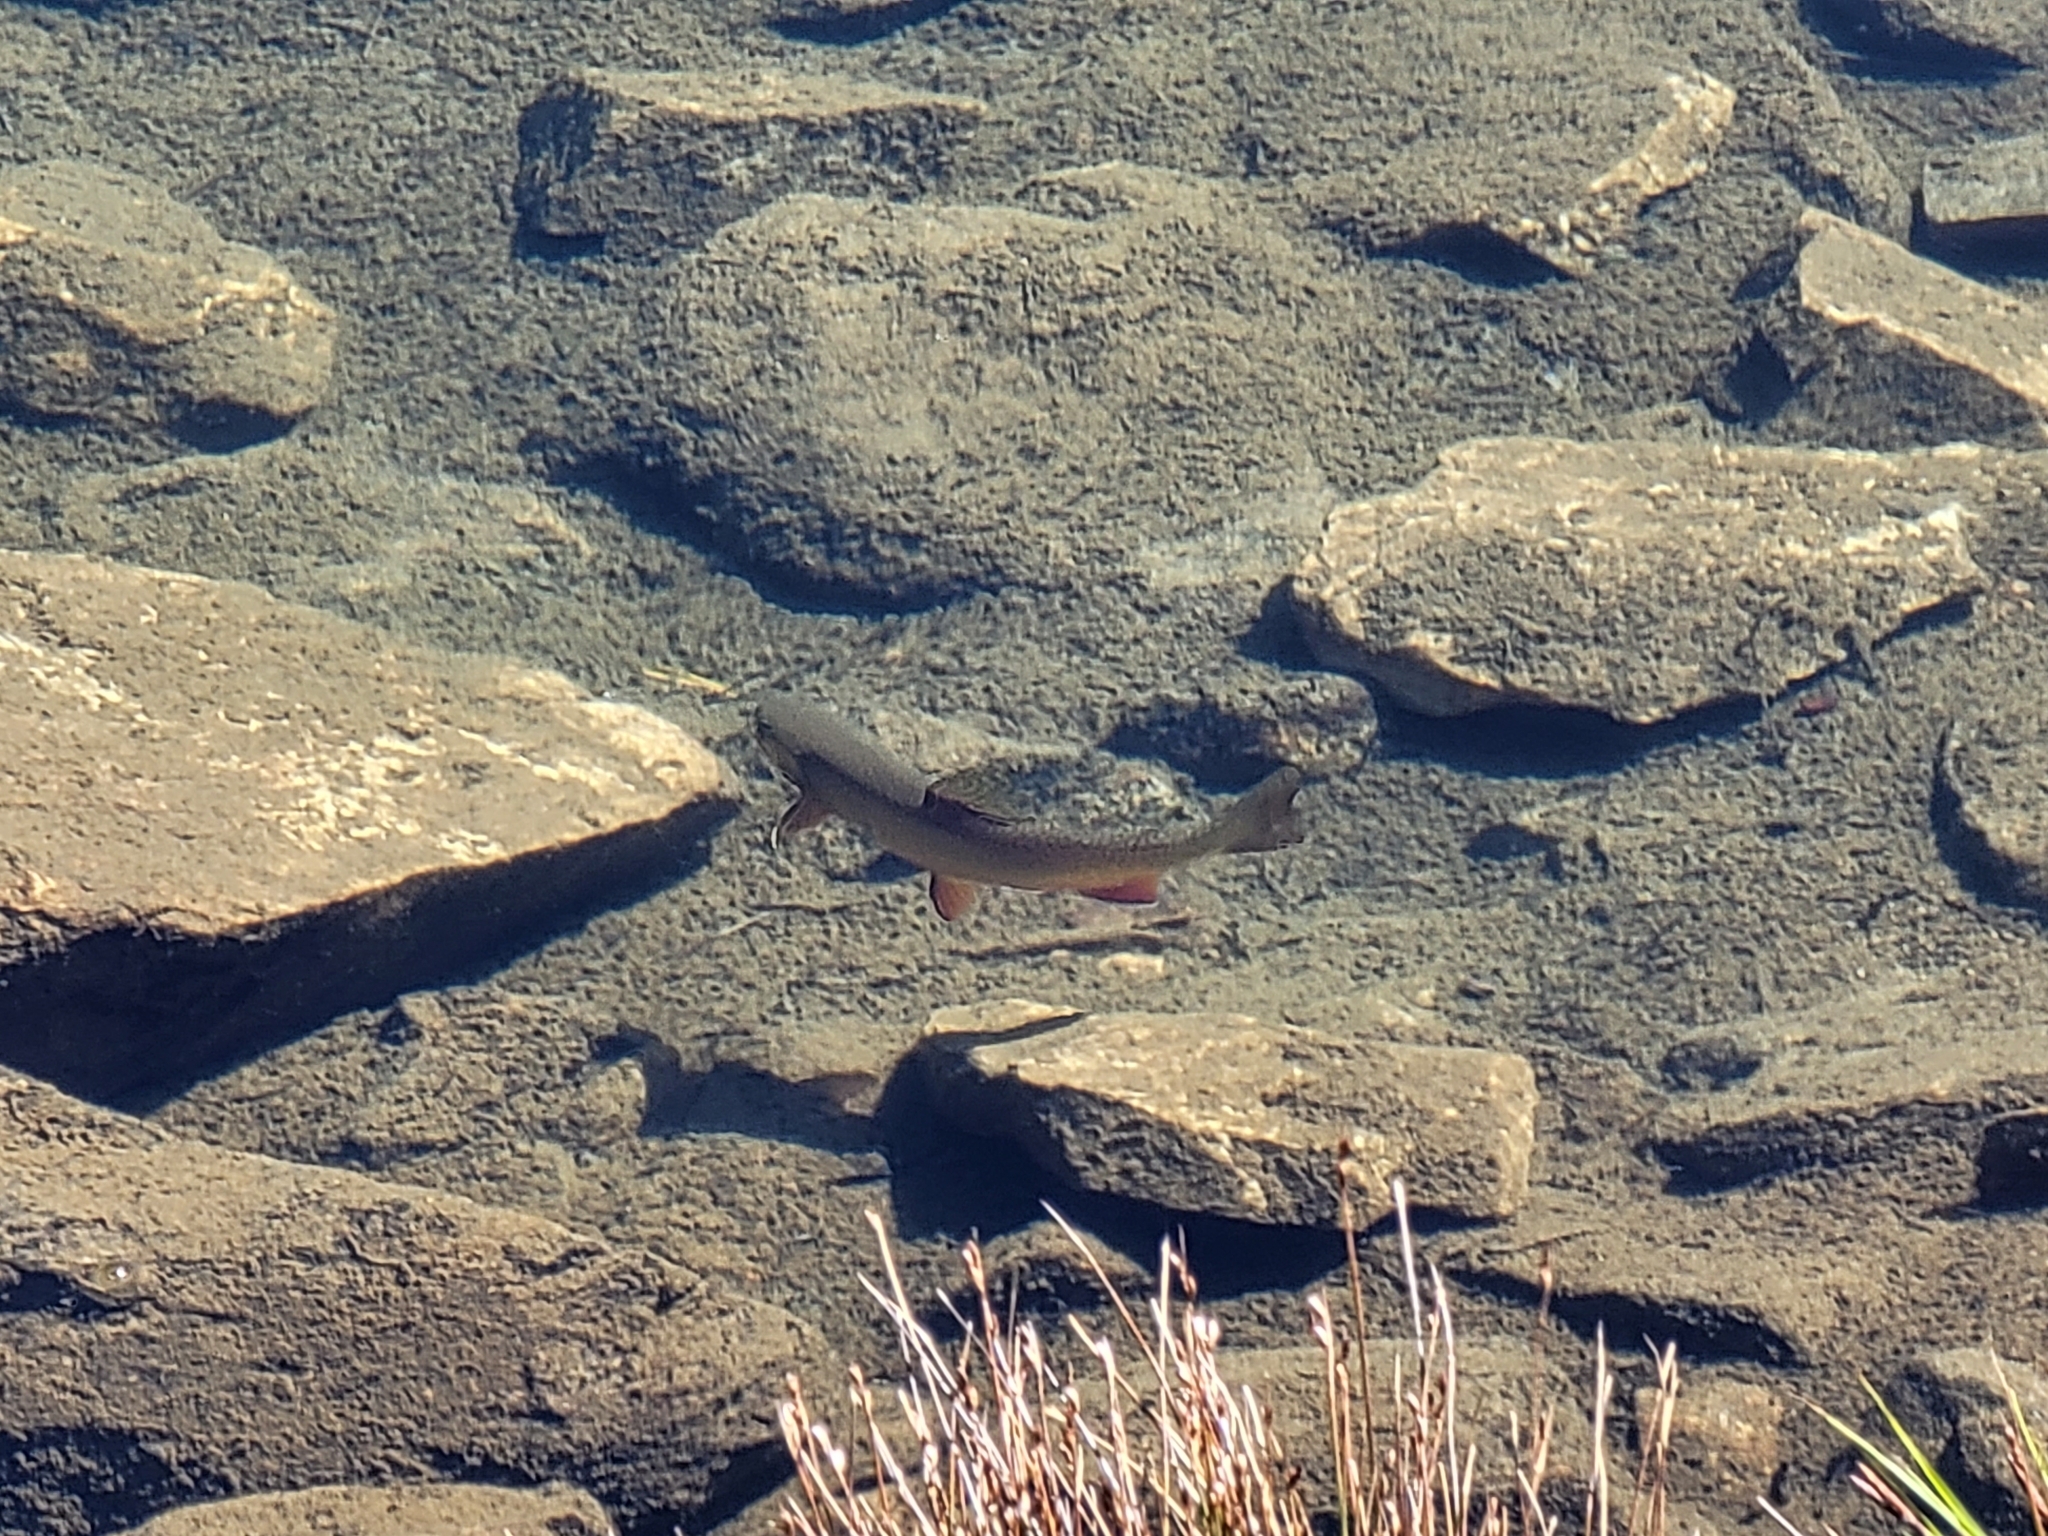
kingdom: Animalia
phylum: Chordata
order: Salmoniformes
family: Salmonidae
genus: Salvelinus
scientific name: Salvelinus fontinalis
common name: Brook trout
